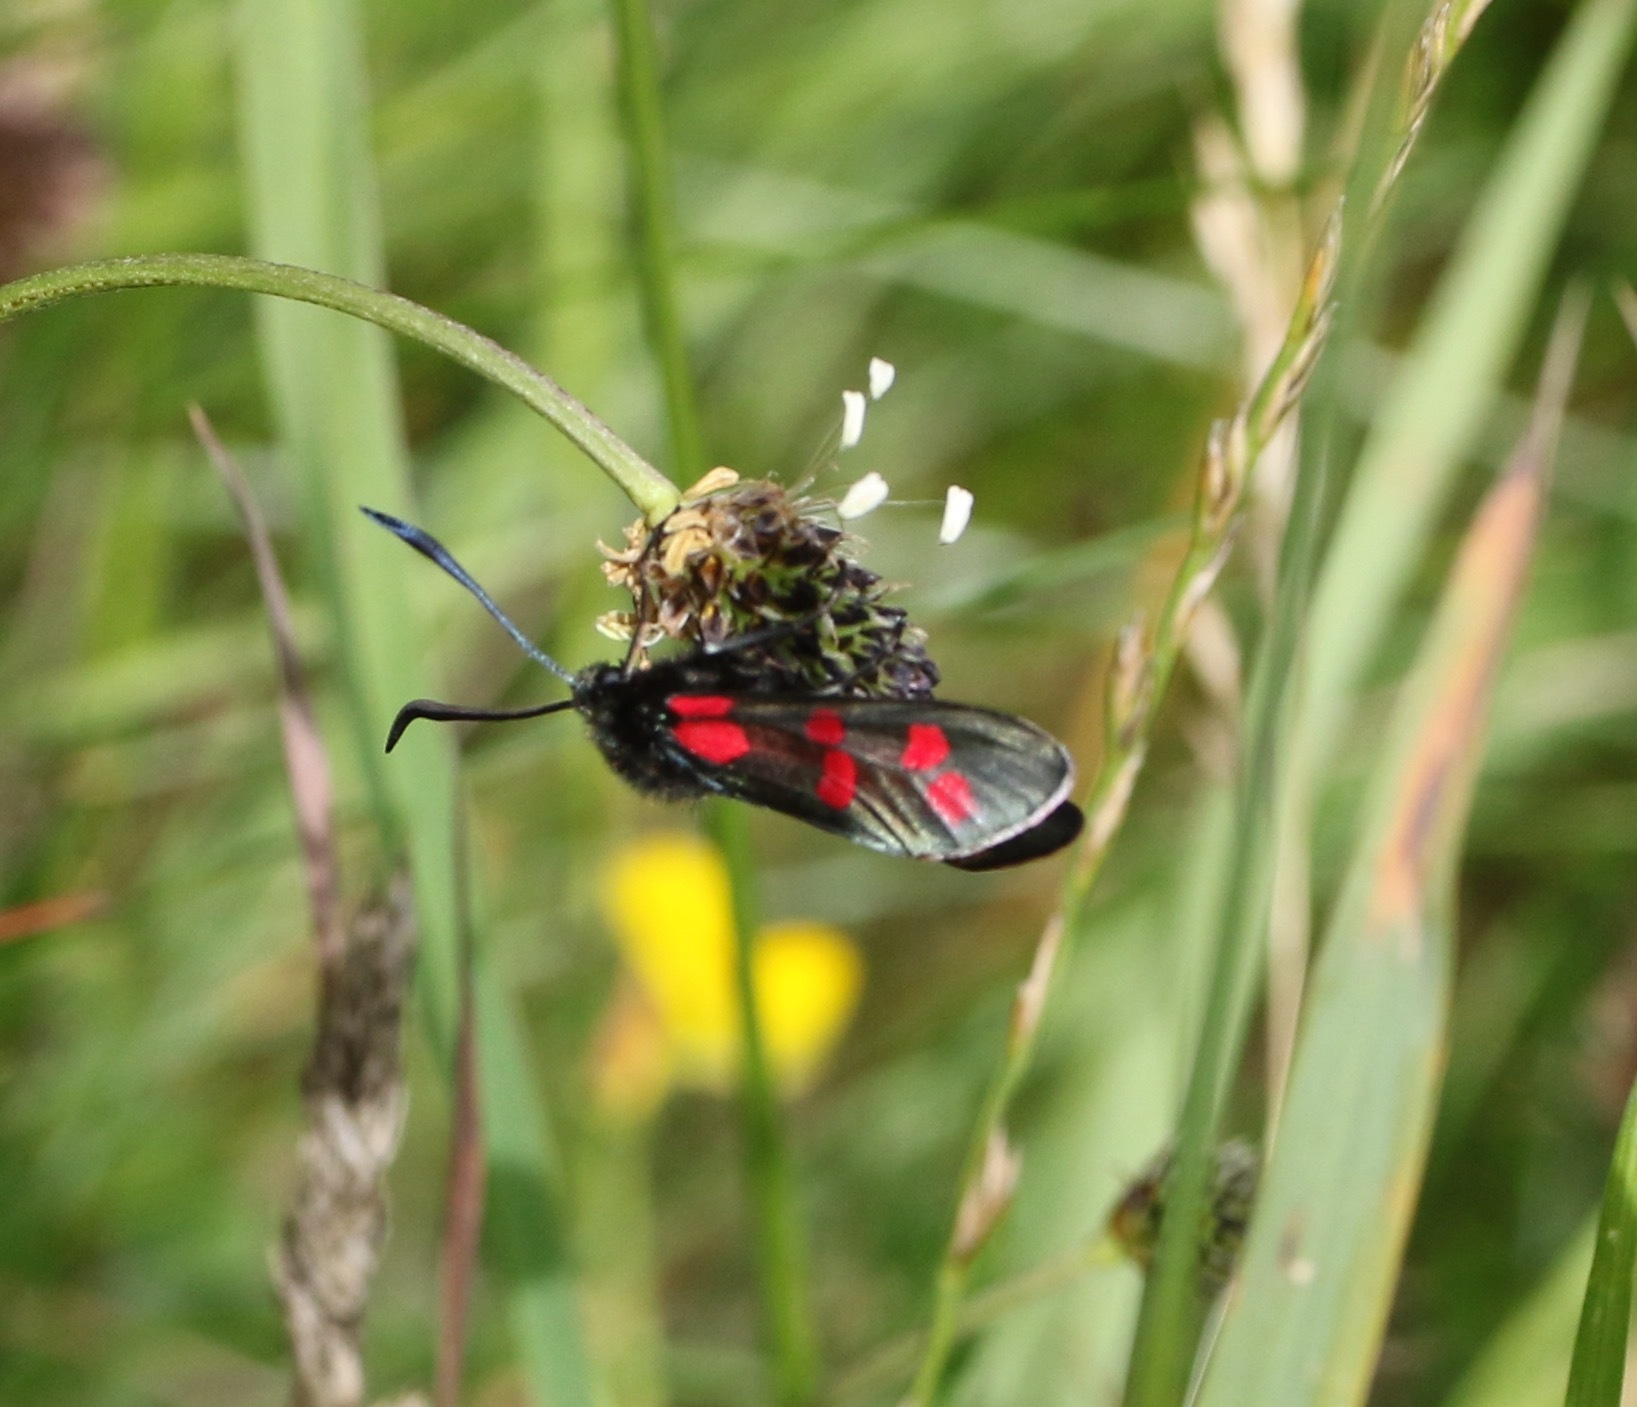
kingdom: Animalia
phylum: Arthropoda
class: Insecta
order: Lepidoptera
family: Zygaenidae
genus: Zygaena
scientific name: Zygaena filipendulae
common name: Six-spot burnet
